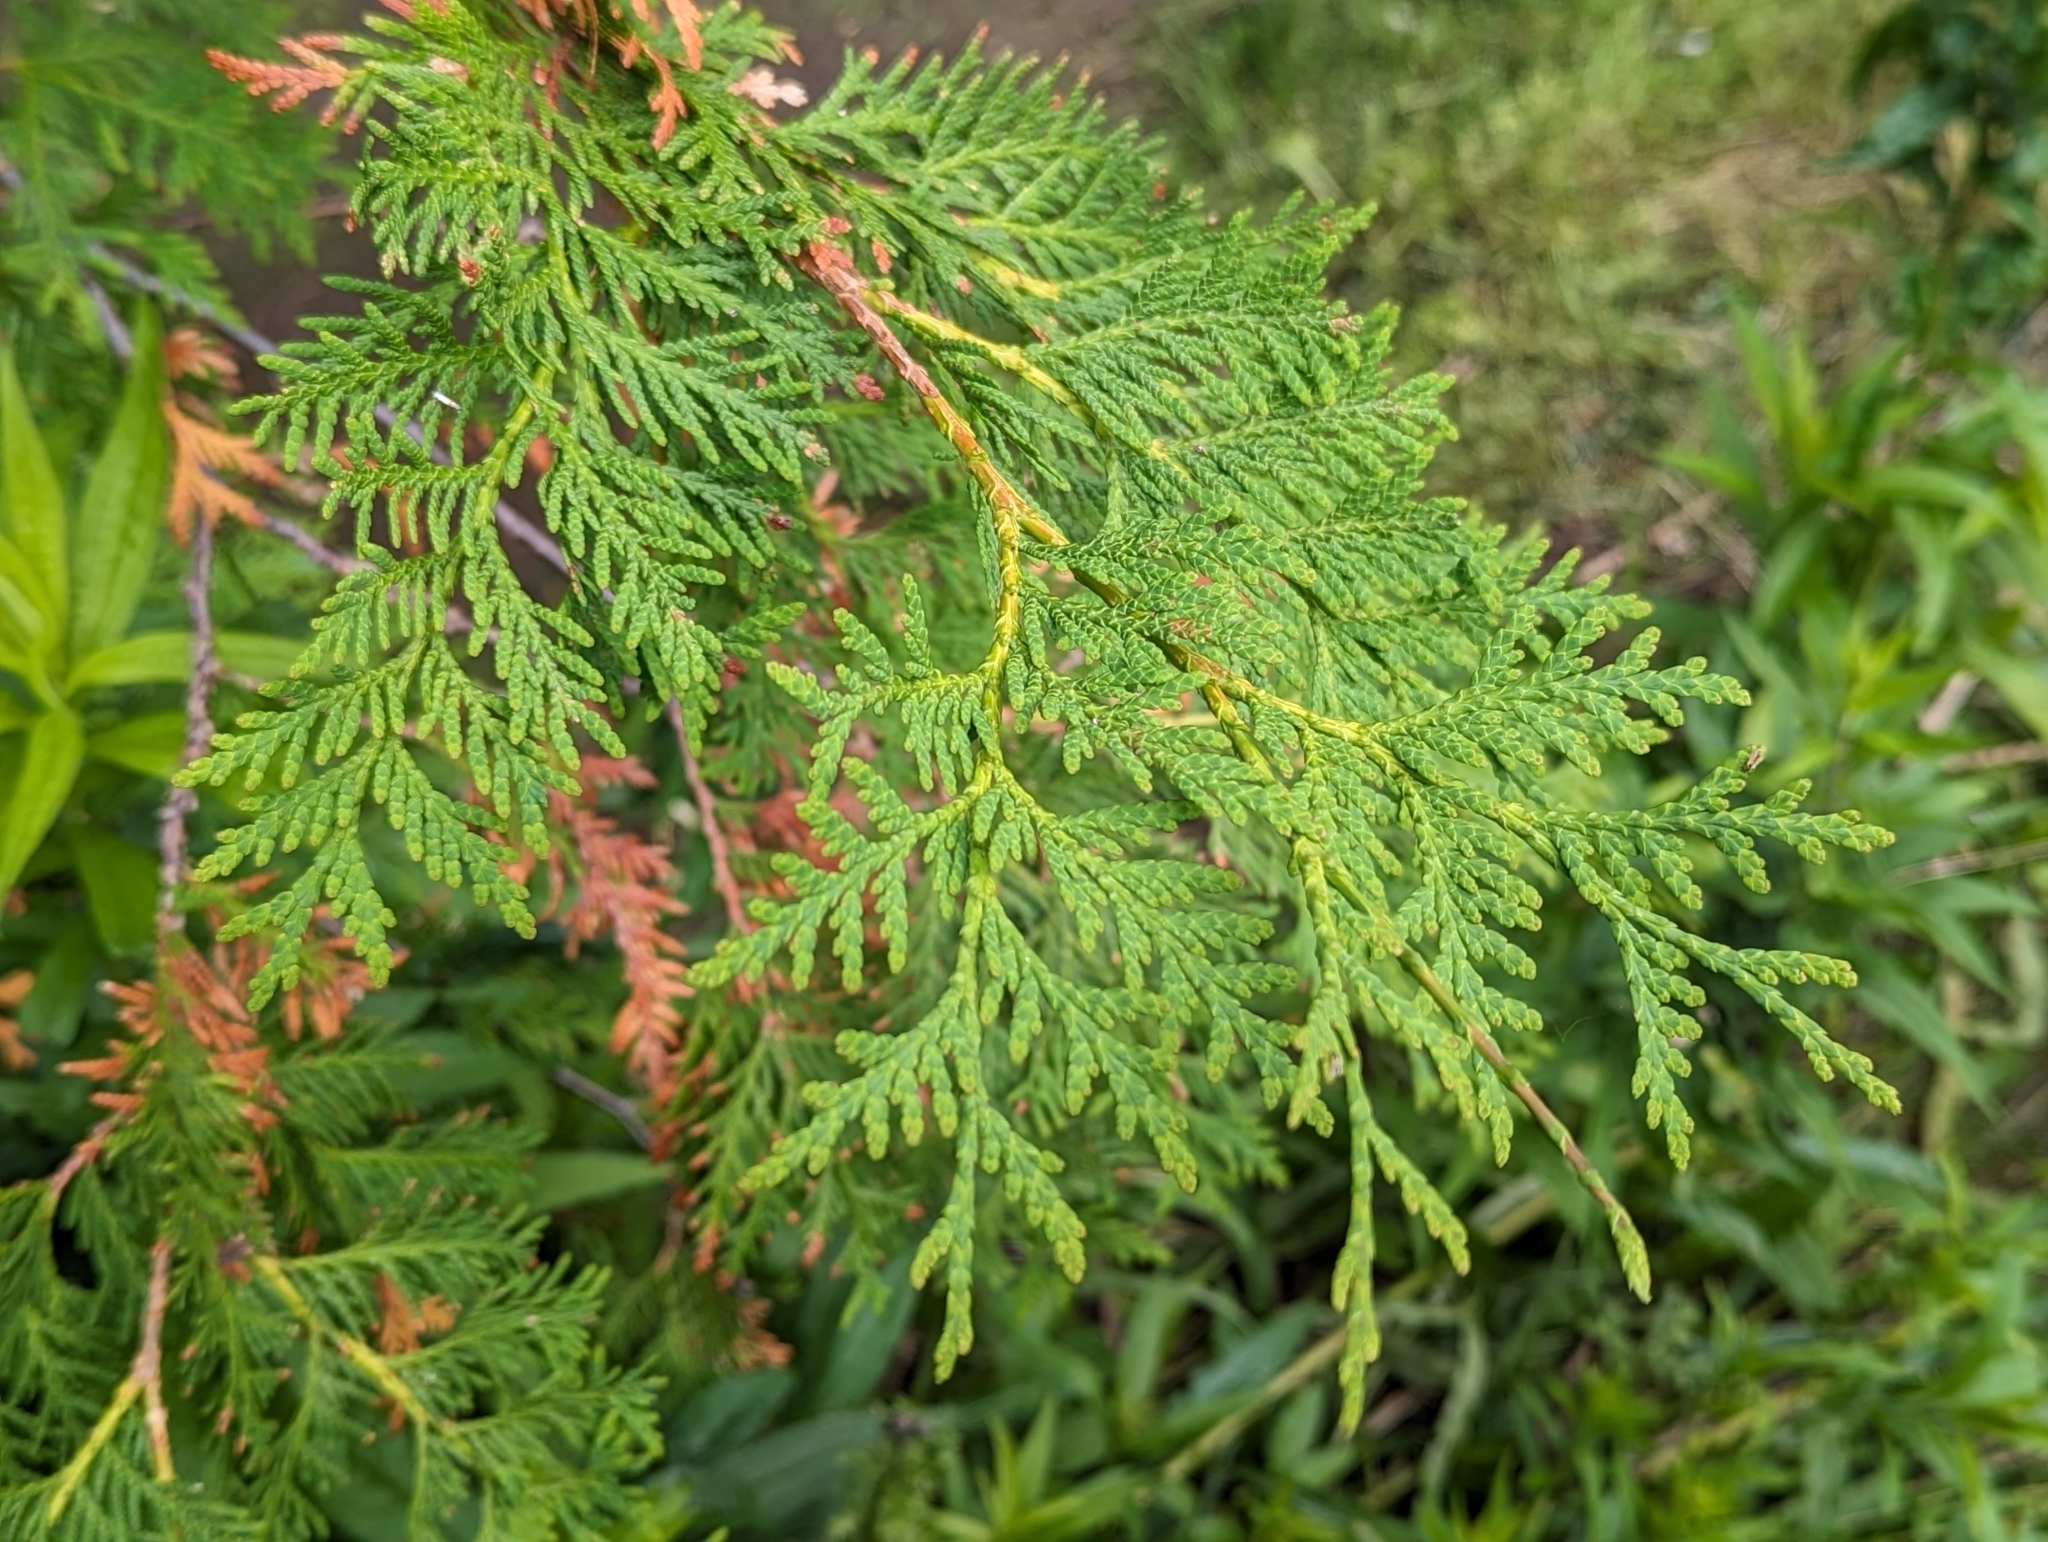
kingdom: Plantae
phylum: Tracheophyta
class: Pinopsida
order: Pinales
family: Cupressaceae
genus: Thuja
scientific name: Thuja occidentalis
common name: Northern white-cedar
